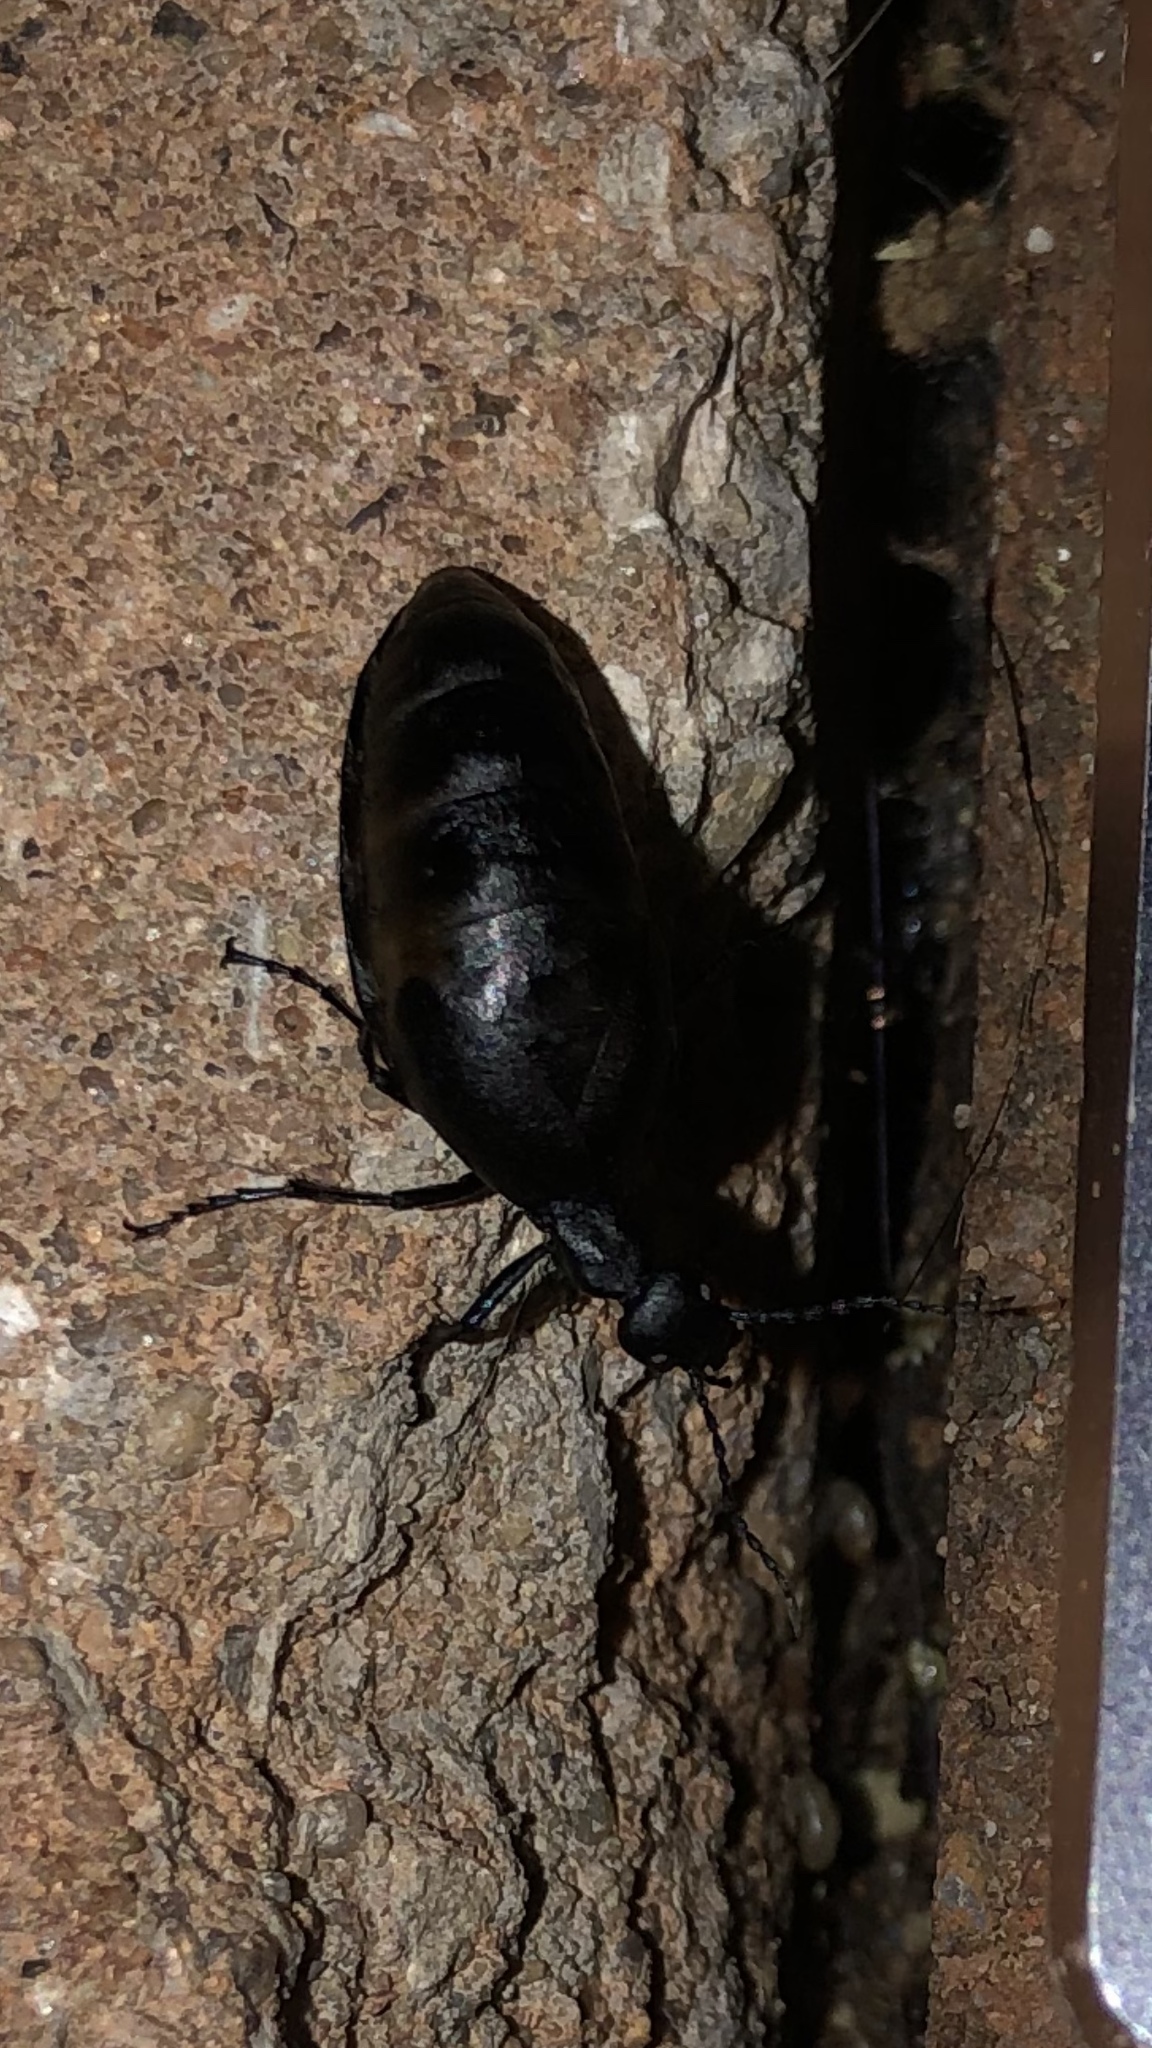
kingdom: Animalia
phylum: Arthropoda
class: Insecta
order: Coleoptera
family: Meloidae
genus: Meloe
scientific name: Meloe americanus
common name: Buttercup oil beetle
